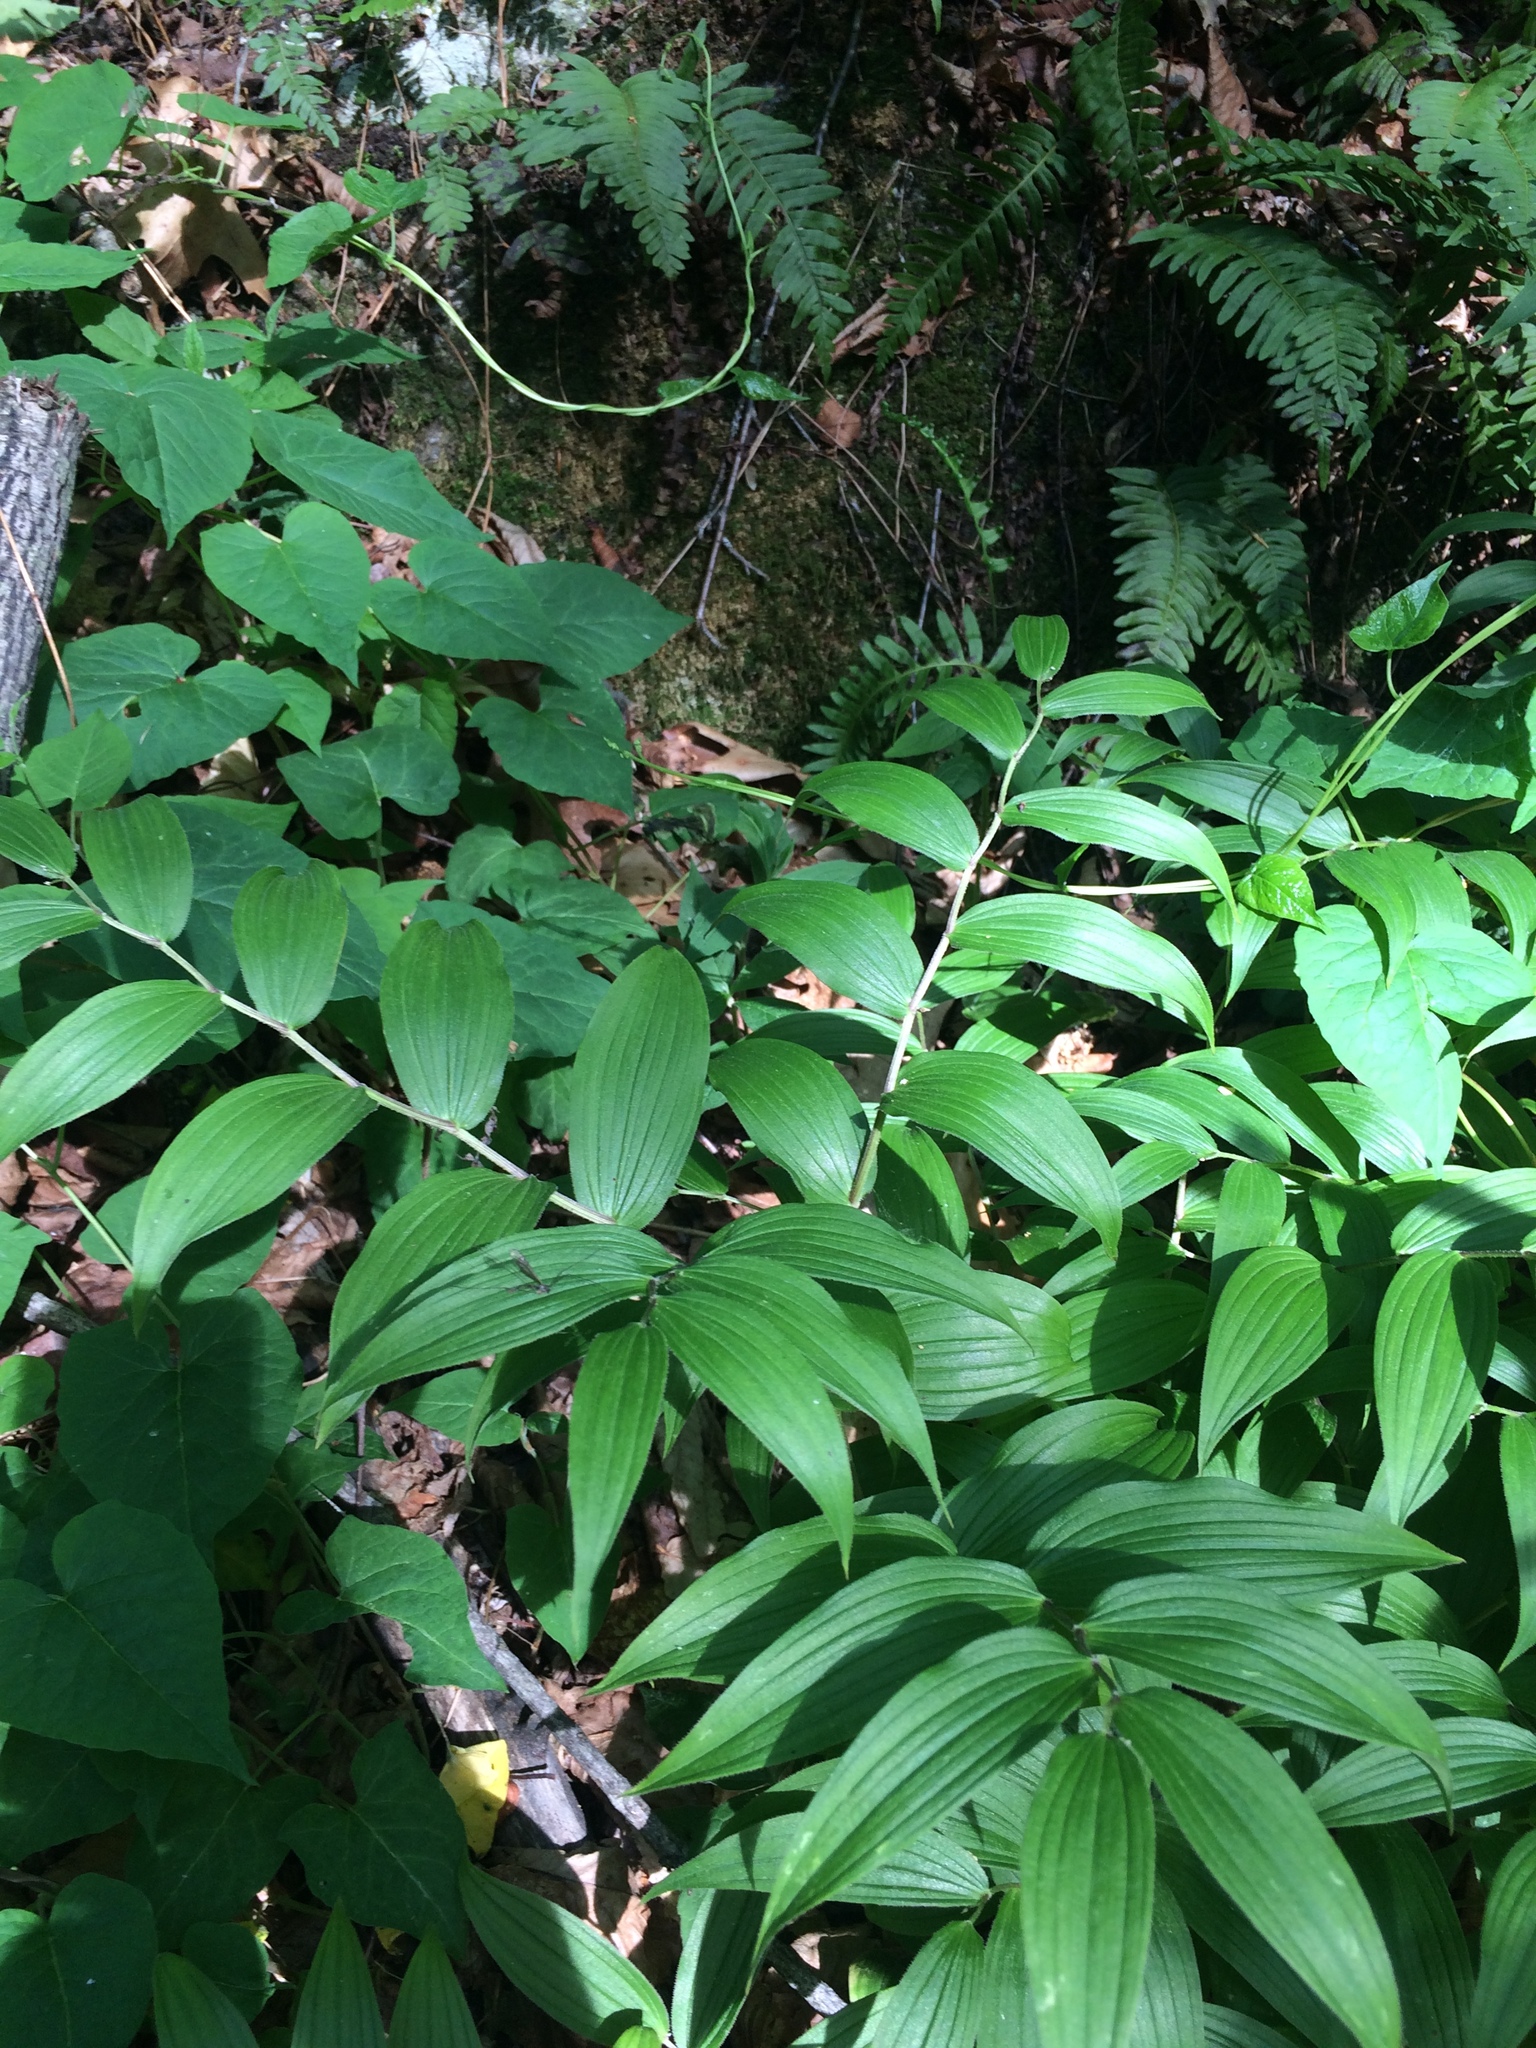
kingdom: Plantae
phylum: Tracheophyta
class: Liliopsida
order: Liliales
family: Liliaceae
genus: Streptopus
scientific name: Streptopus lanceolatus
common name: Rose mandarin
